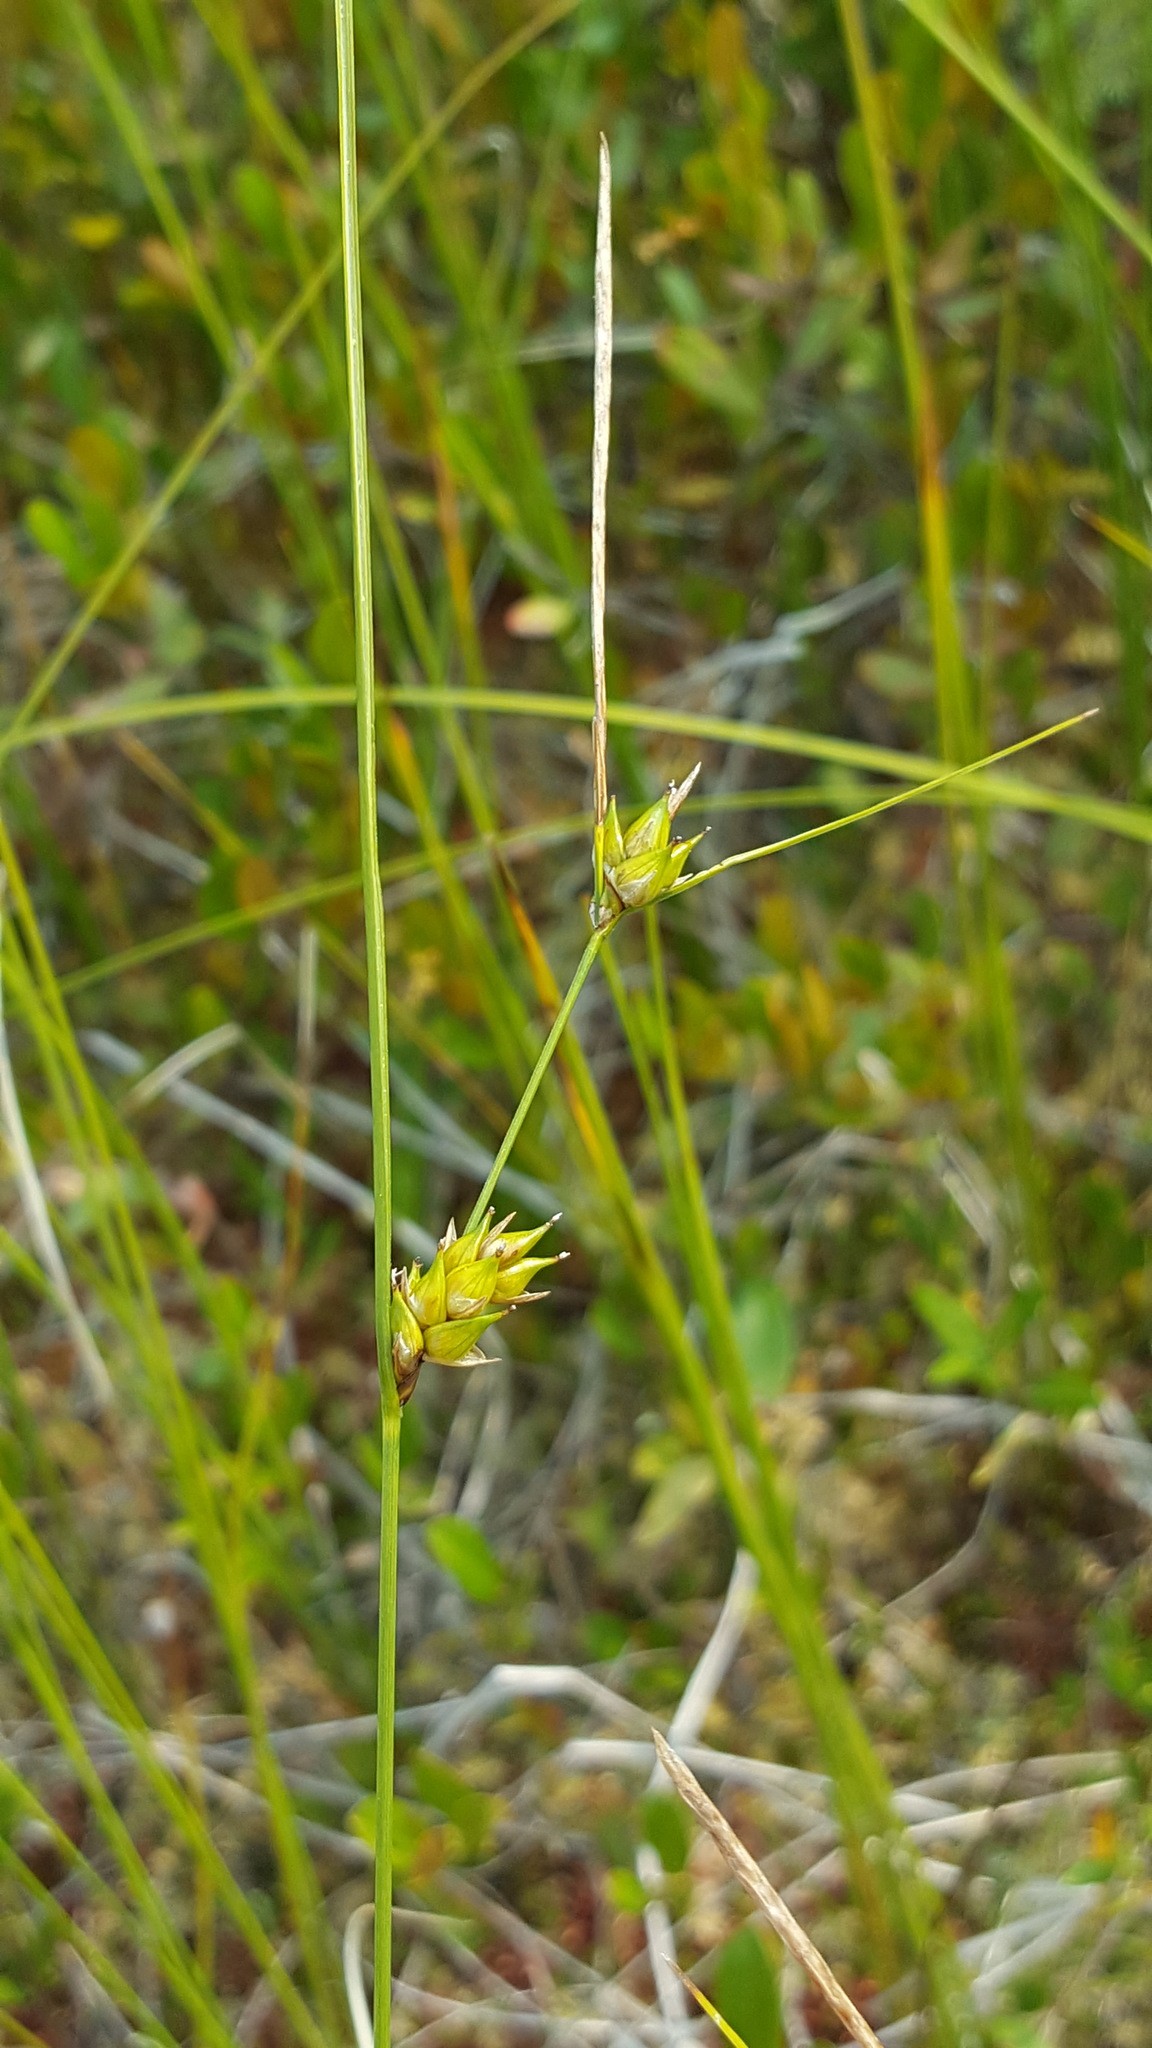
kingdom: Plantae
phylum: Tracheophyta
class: Liliopsida
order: Poales
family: Cyperaceae
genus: Carex
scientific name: Carex oligosperma
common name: Few-seed sedge
